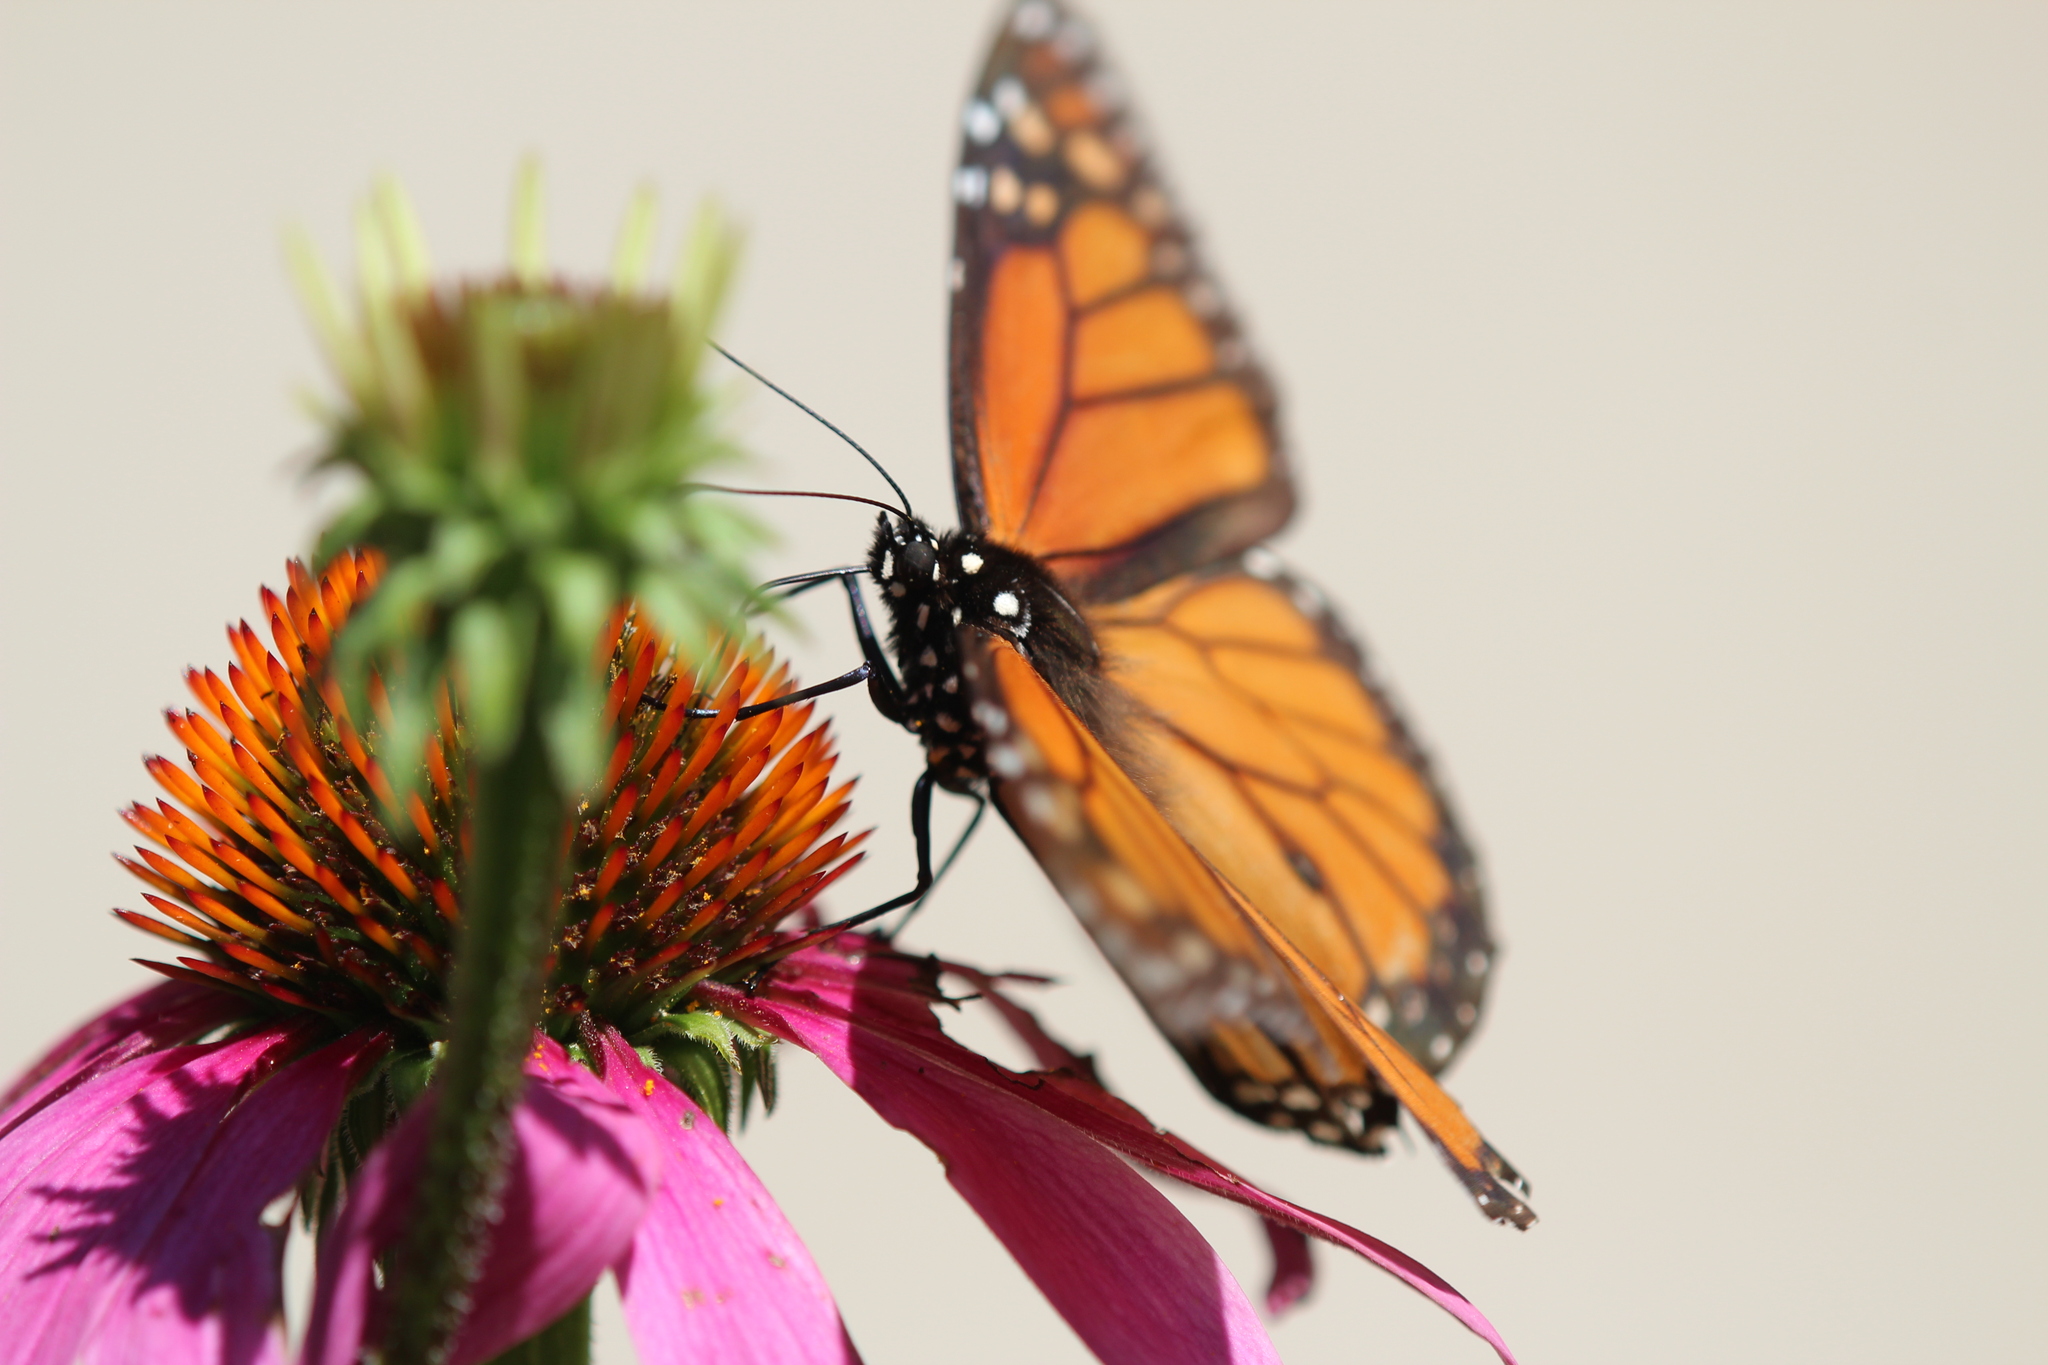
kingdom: Animalia
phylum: Arthropoda
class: Insecta
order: Lepidoptera
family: Nymphalidae
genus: Danaus
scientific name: Danaus plexippus
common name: Monarch
